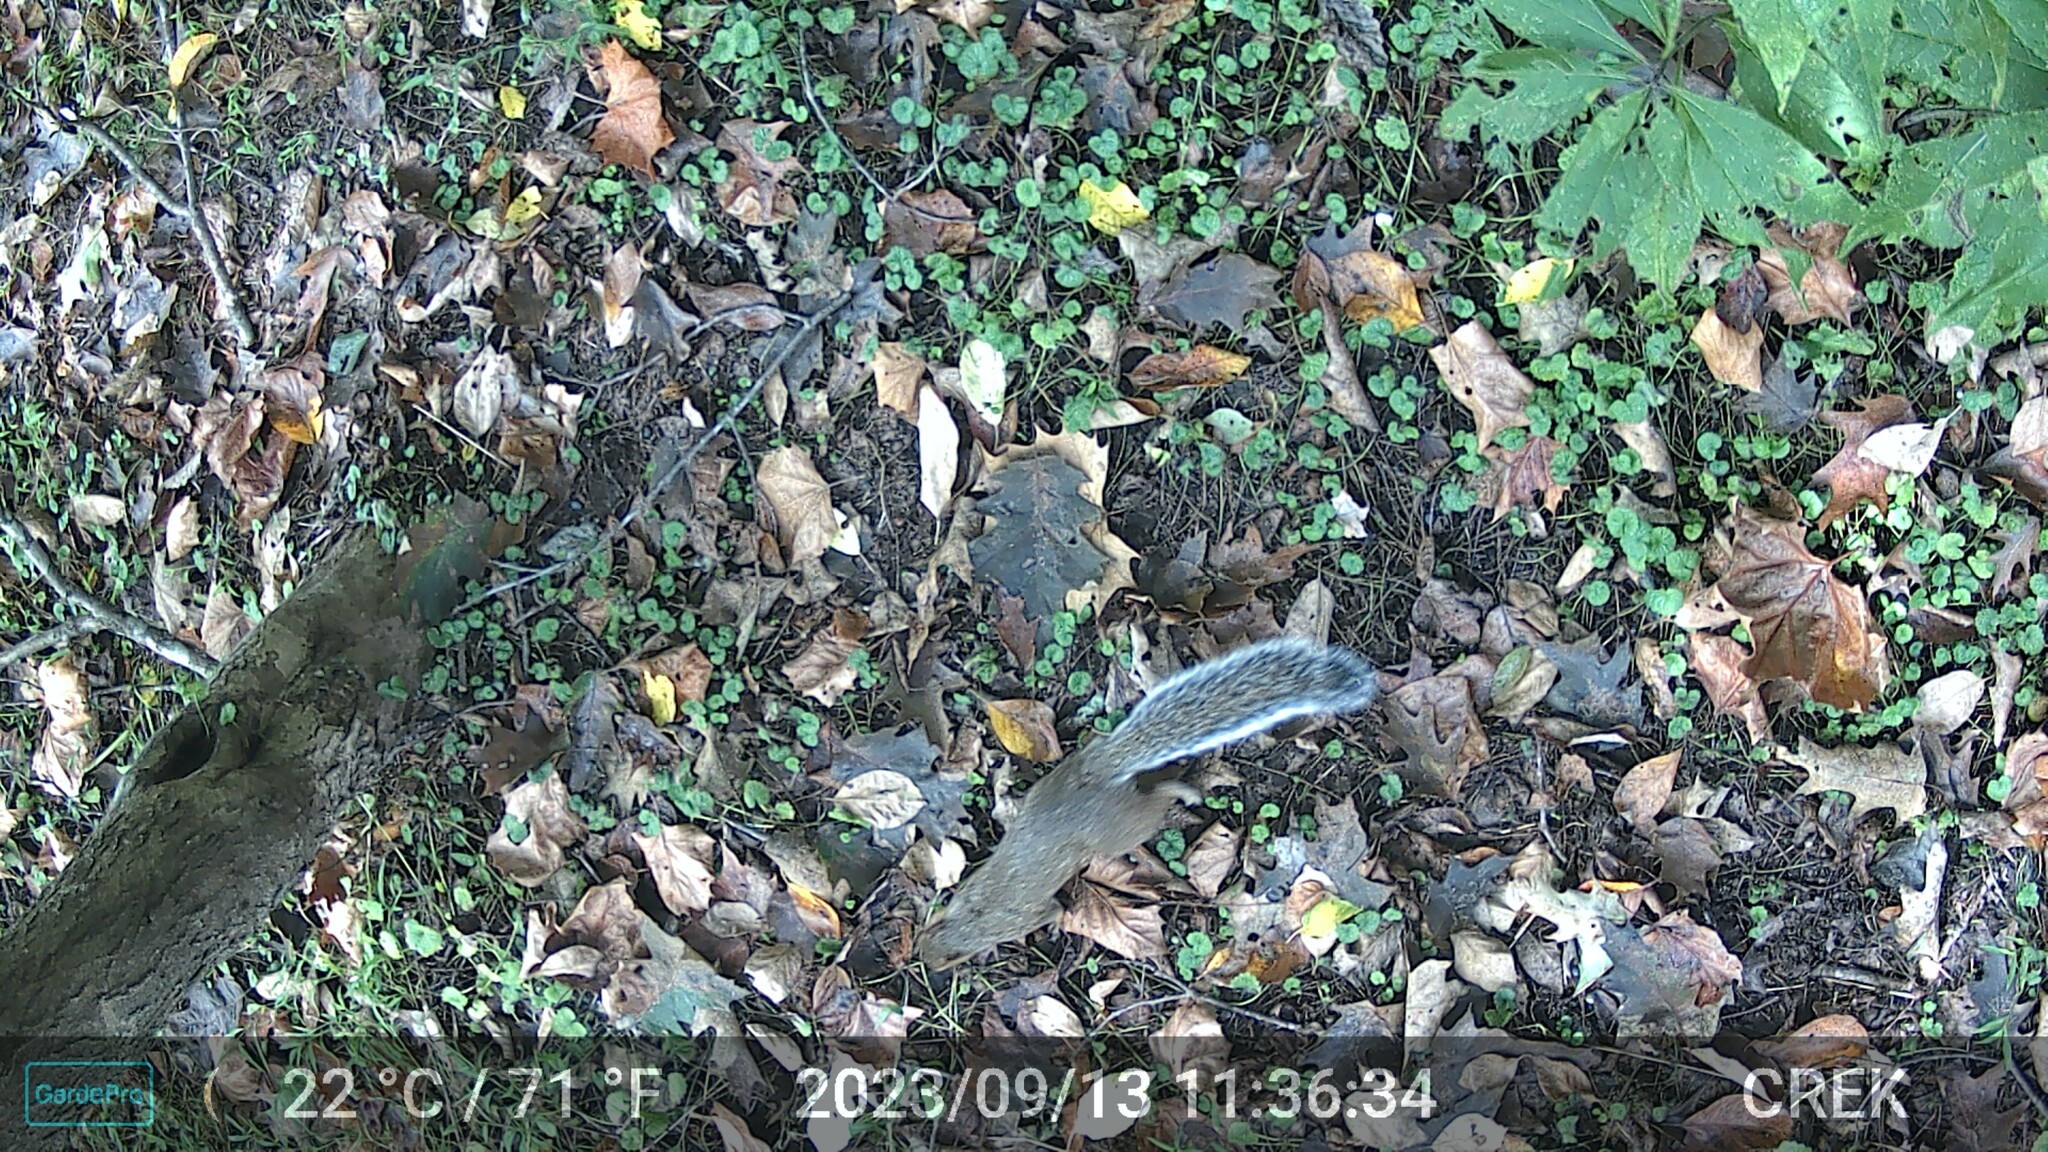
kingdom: Animalia
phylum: Chordata
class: Mammalia
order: Rodentia
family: Sciuridae
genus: Sciurus
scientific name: Sciurus carolinensis
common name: Eastern gray squirrel
